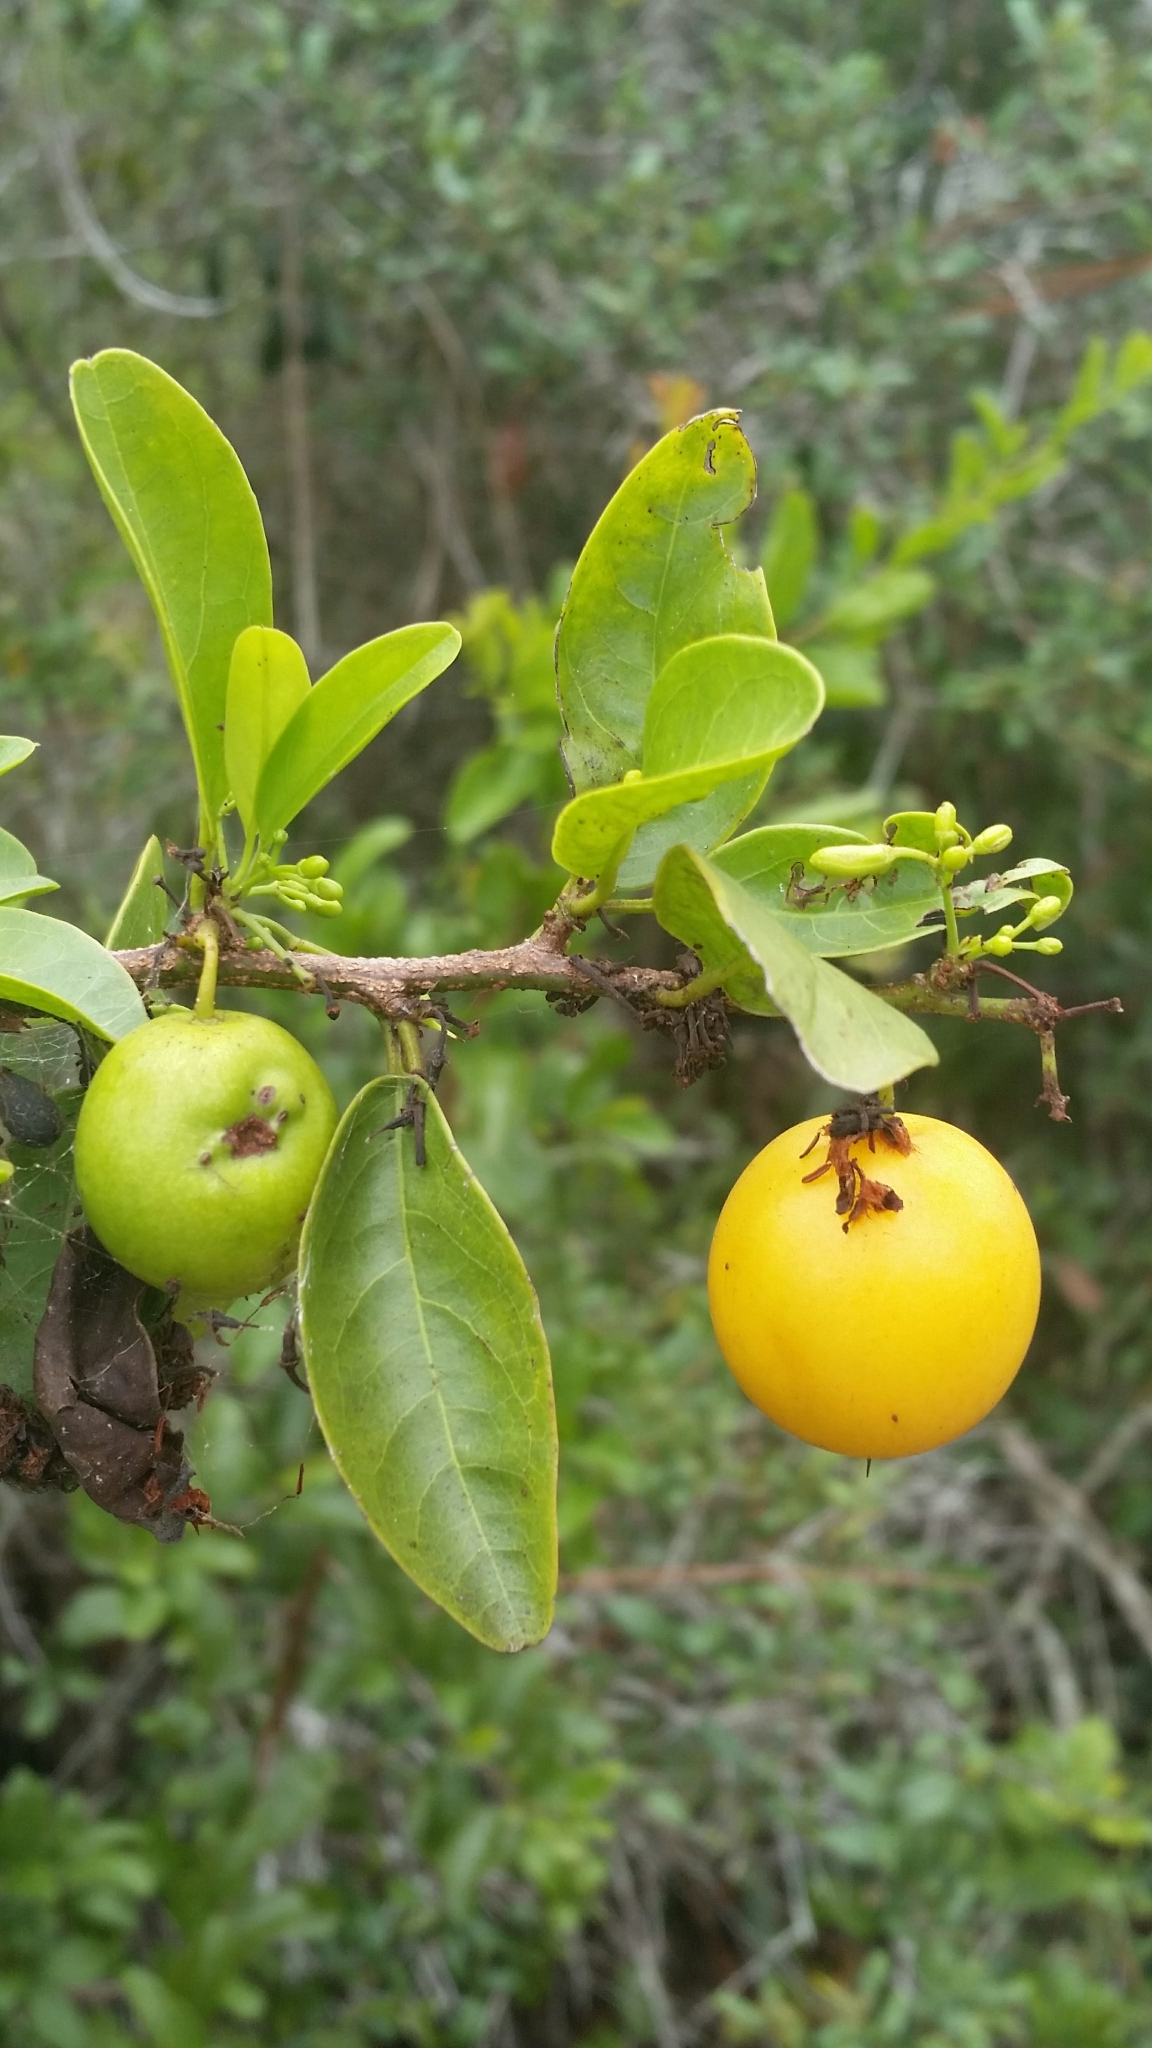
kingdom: Plantae
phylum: Tracheophyta
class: Magnoliopsida
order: Santalales
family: Ximeniaceae
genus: Ximenia
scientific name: Ximenia americana
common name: Tallowwood
